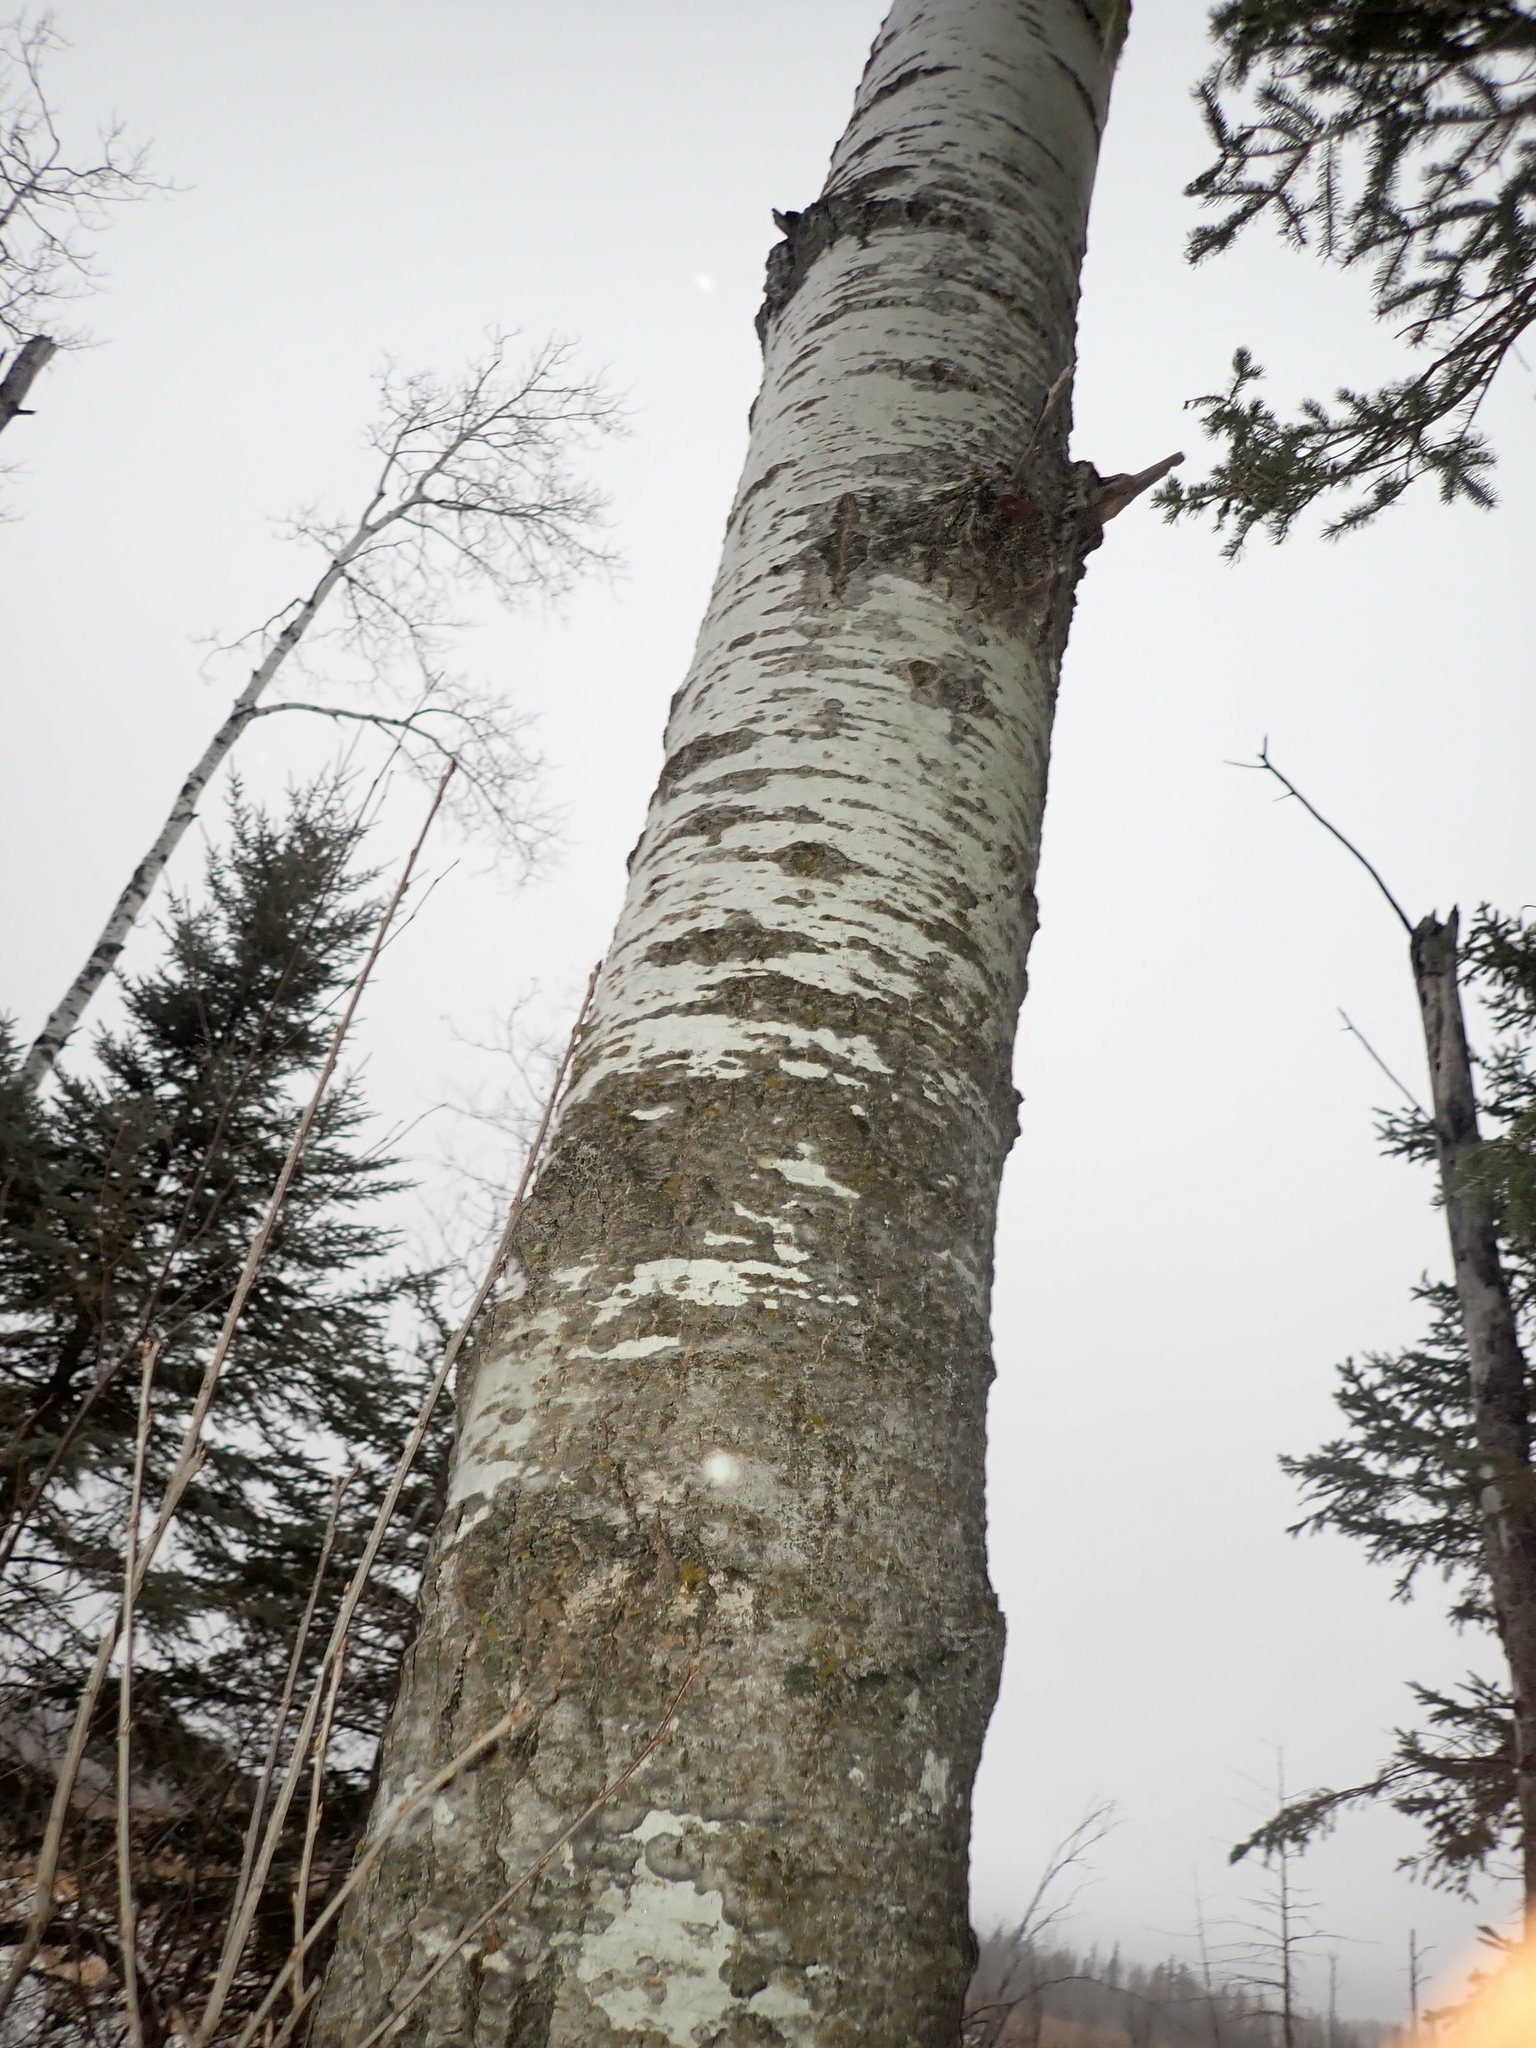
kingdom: Plantae
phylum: Tracheophyta
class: Magnoliopsida
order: Malpighiales
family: Salicaceae
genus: Populus
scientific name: Populus tremuloides
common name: Quaking aspen
